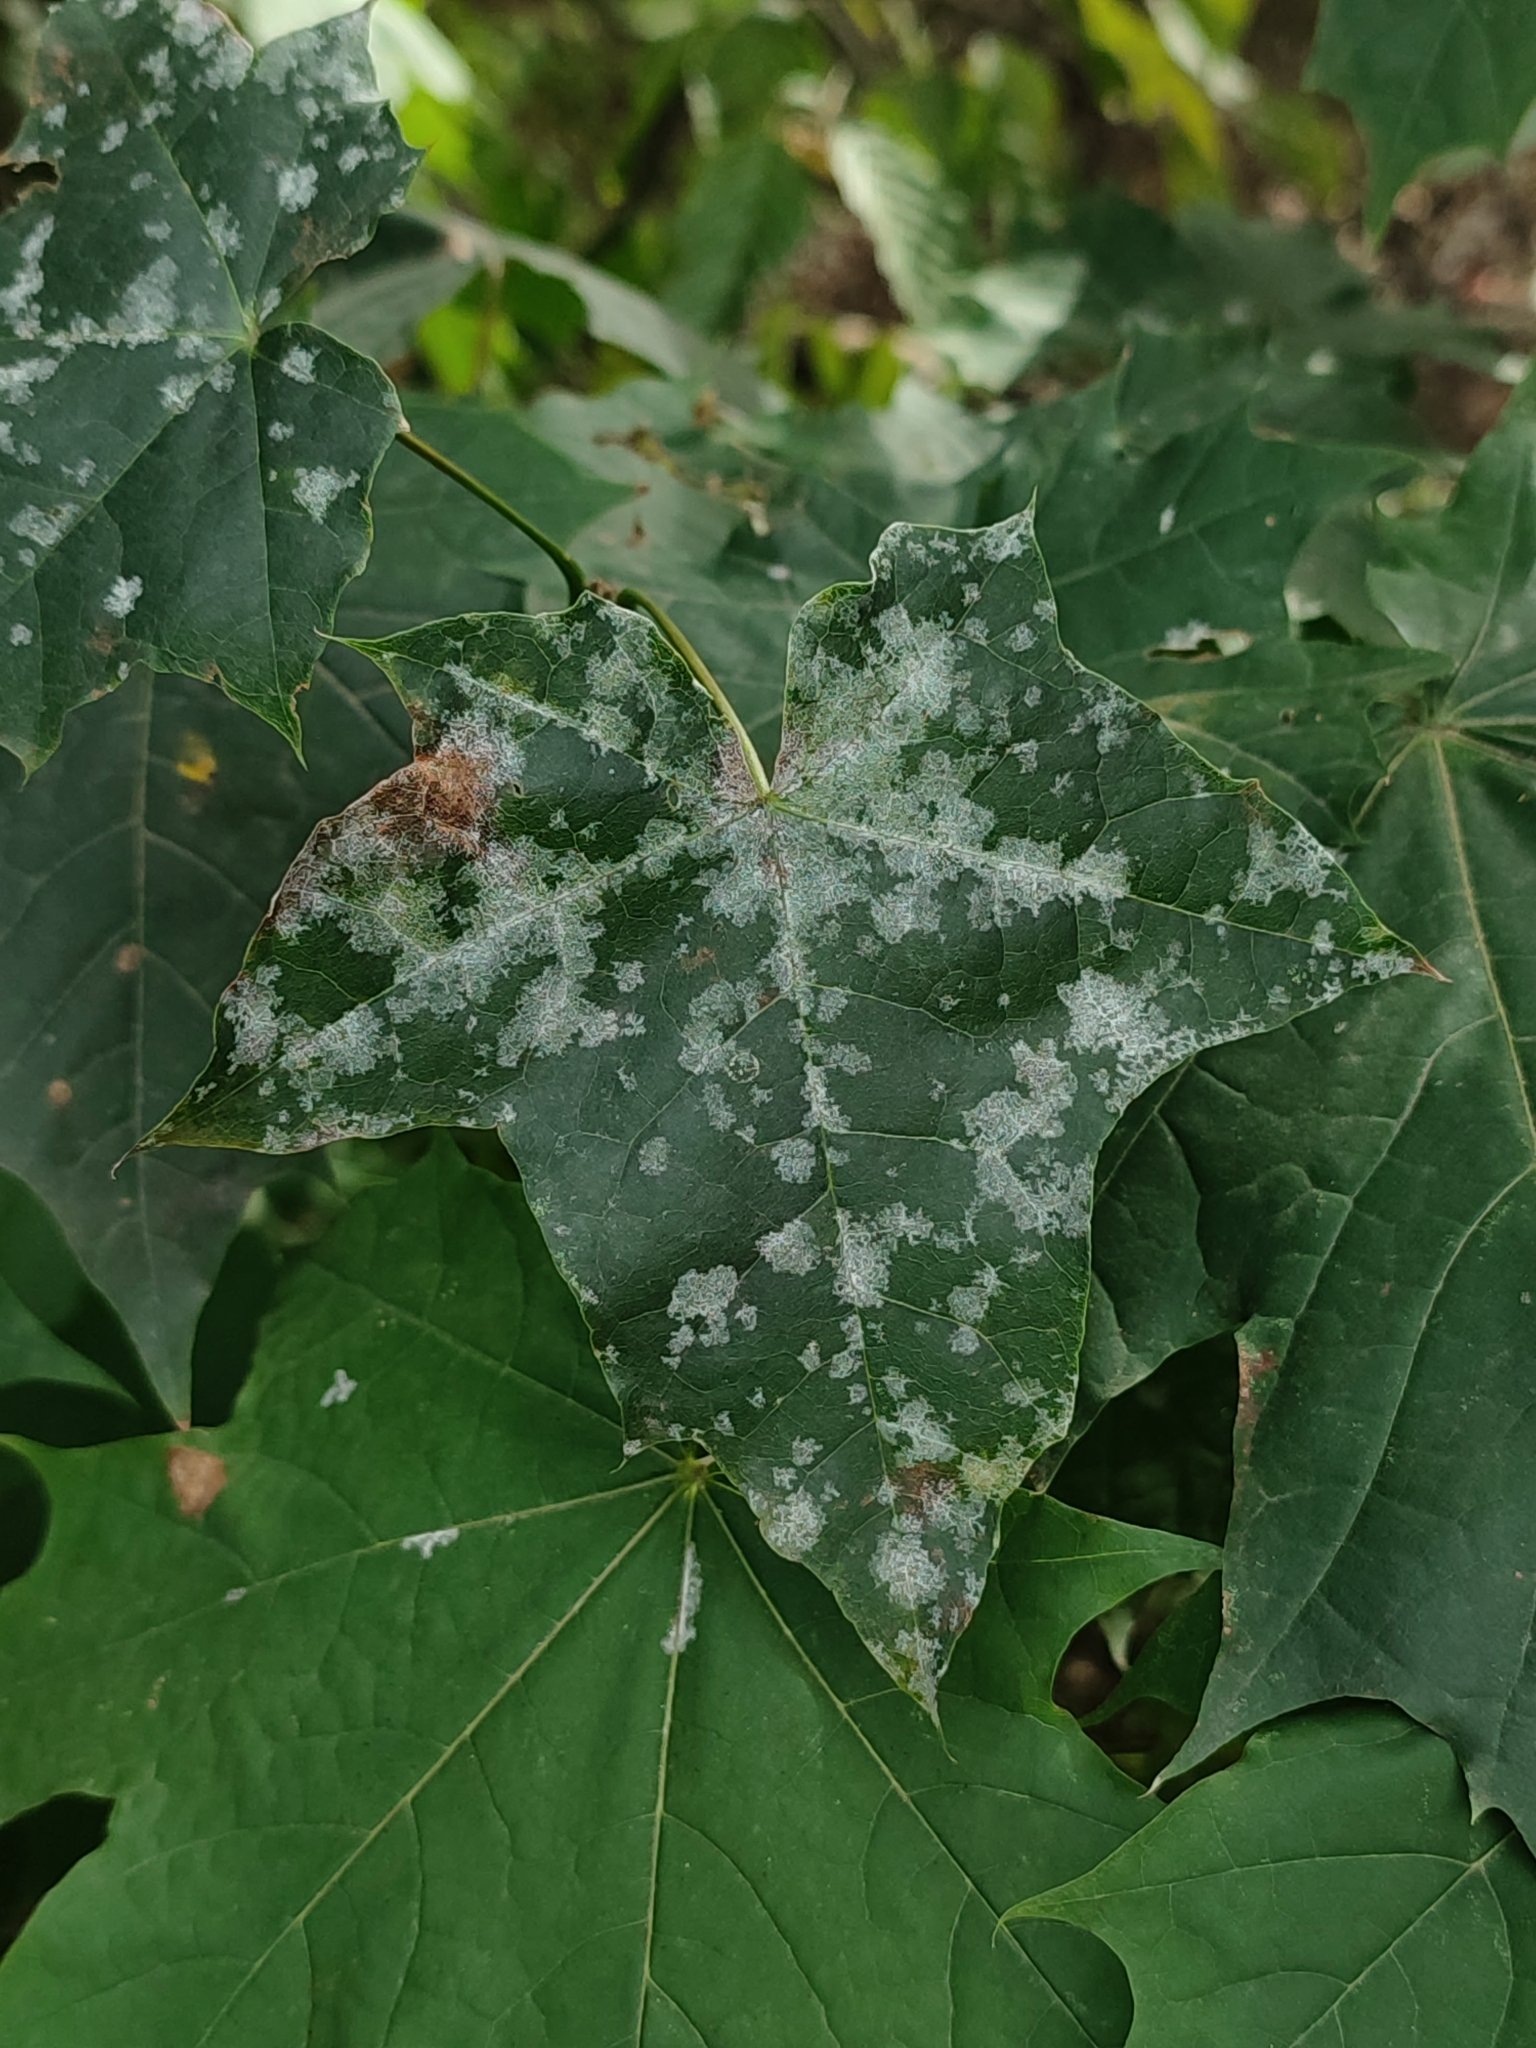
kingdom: Fungi
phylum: Ascomycota
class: Leotiomycetes
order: Helotiales
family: Erysiphaceae
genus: Sawadaea
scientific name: Sawadaea tulasnei
